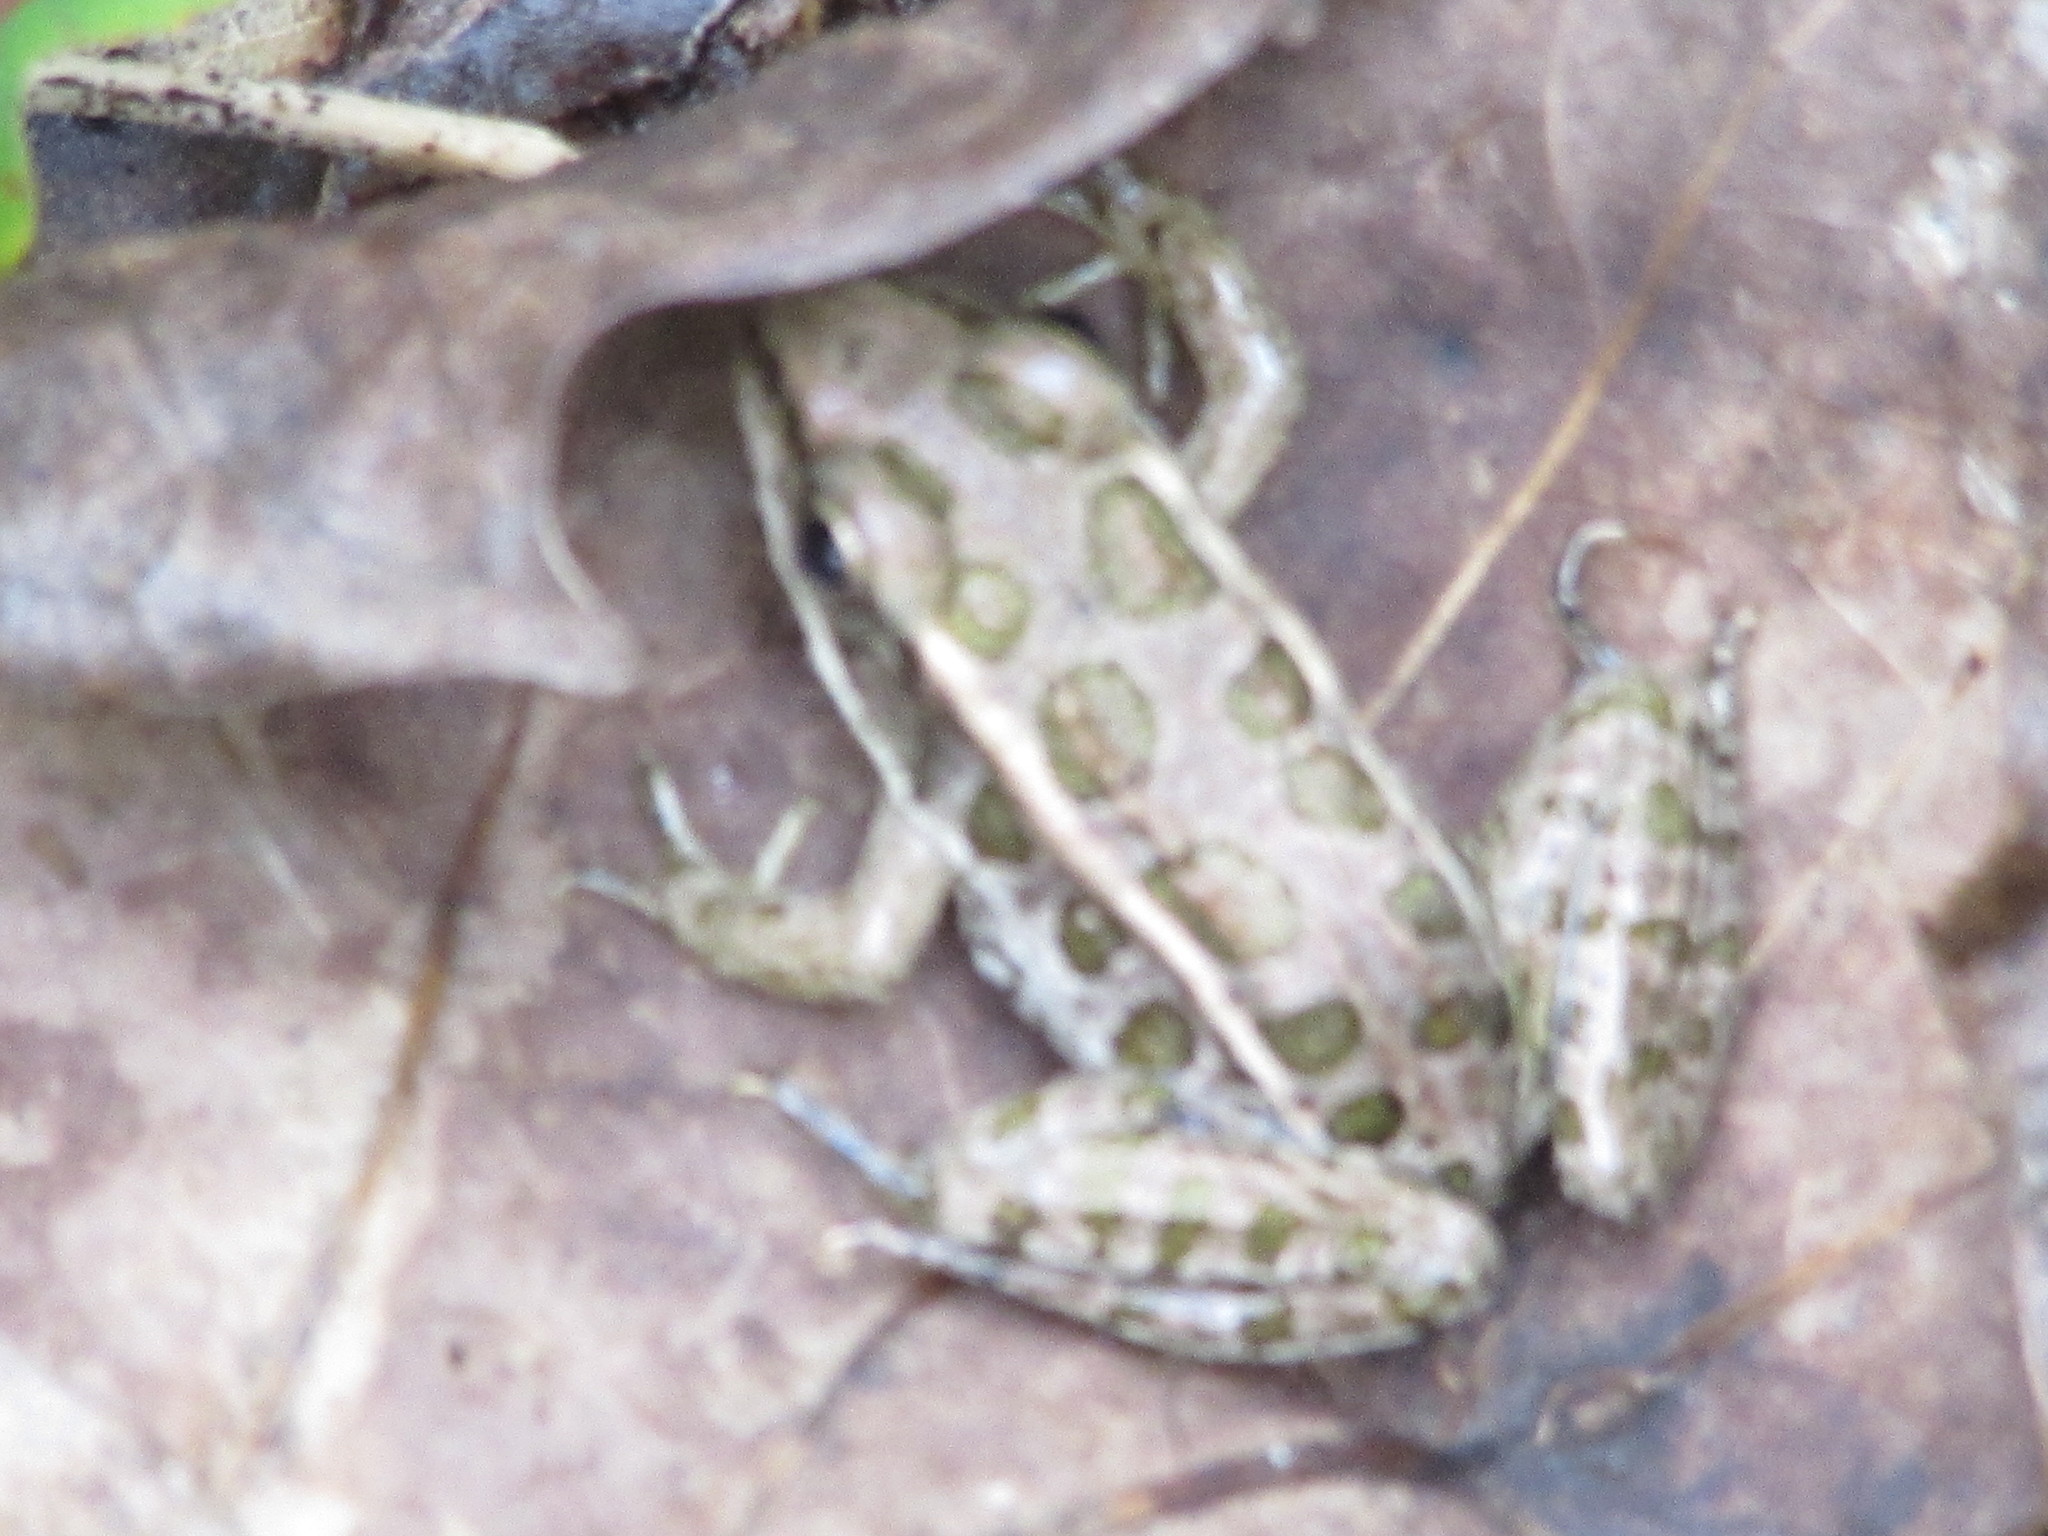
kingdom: Animalia
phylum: Chordata
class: Amphibia
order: Anura
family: Ranidae
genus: Lithobates
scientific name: Lithobates palustris
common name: Pickerel frog
